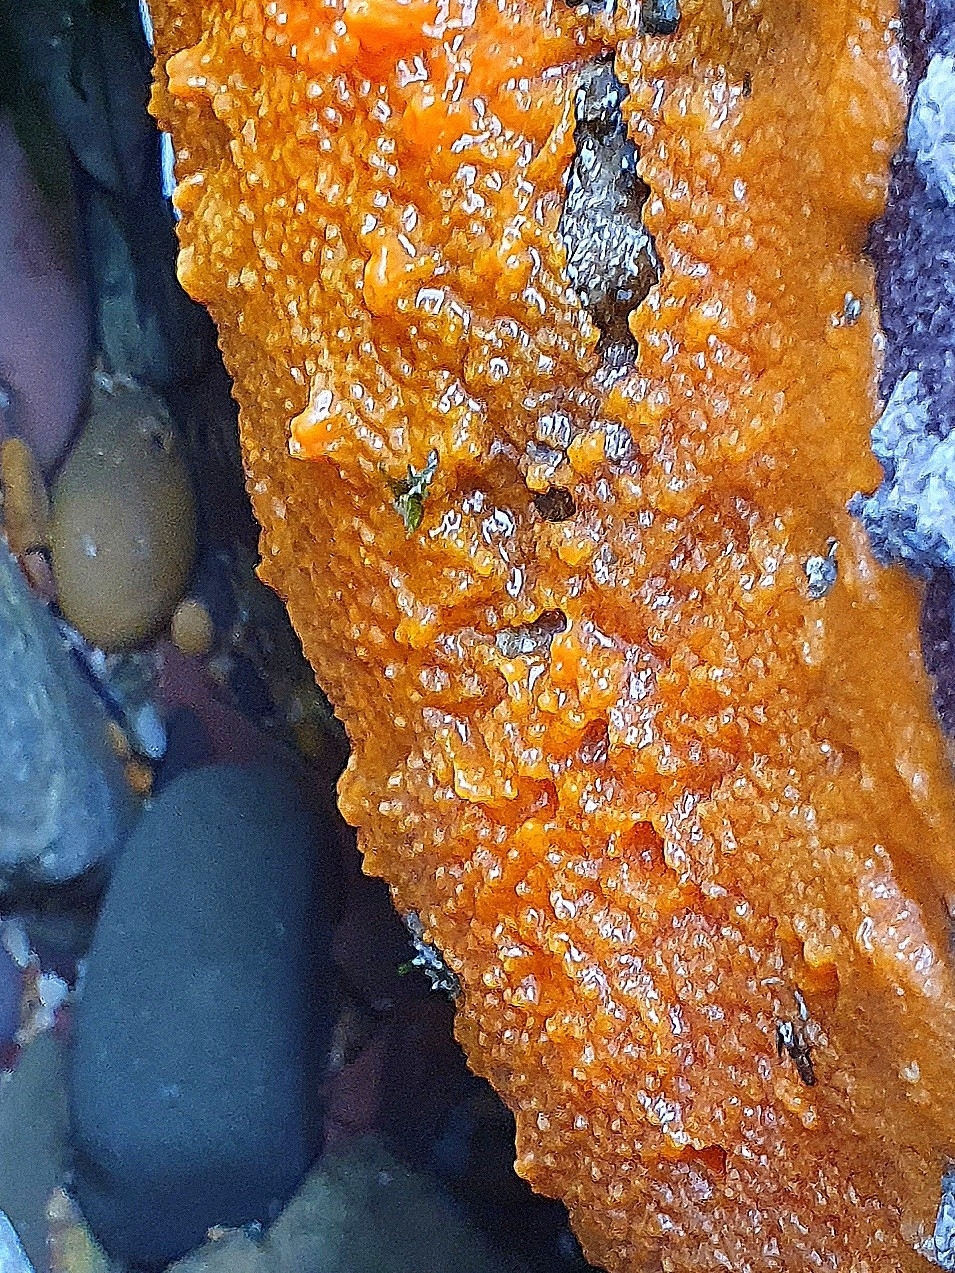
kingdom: Animalia
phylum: Porifera
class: Demospongiae
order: Suberitida
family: Halichondriidae
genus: Hymeniacidon
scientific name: Hymeniacidon perlevis
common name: Crumb-of-bread sponge
